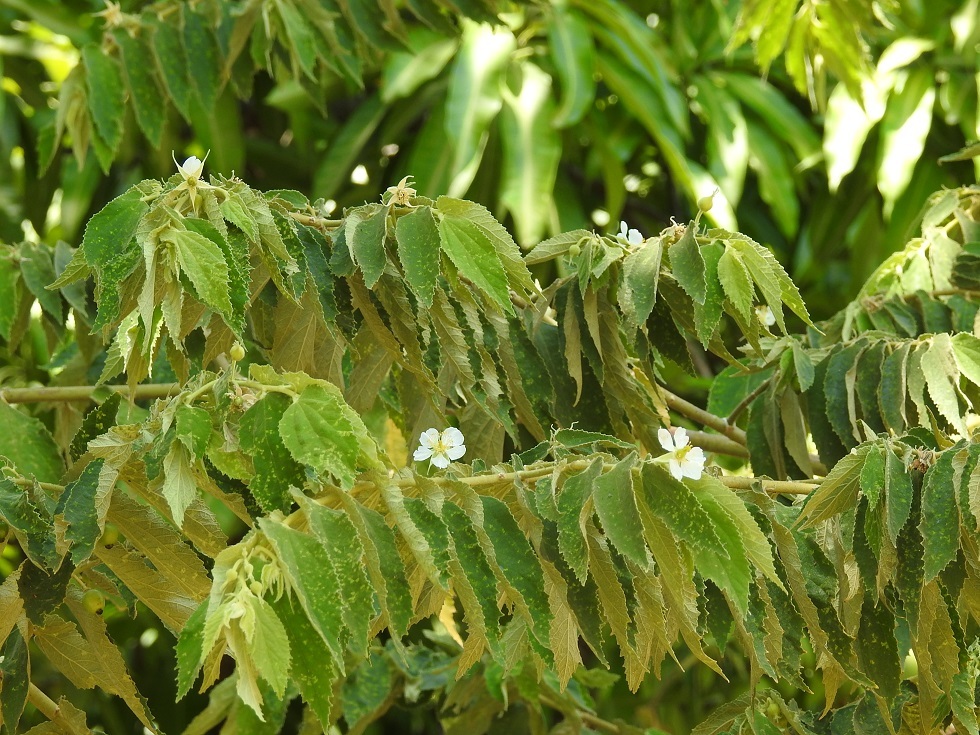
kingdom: Plantae
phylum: Tracheophyta
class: Magnoliopsida
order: Malvales
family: Muntingiaceae
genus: Muntingia
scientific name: Muntingia calabura
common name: Strawberrytree
